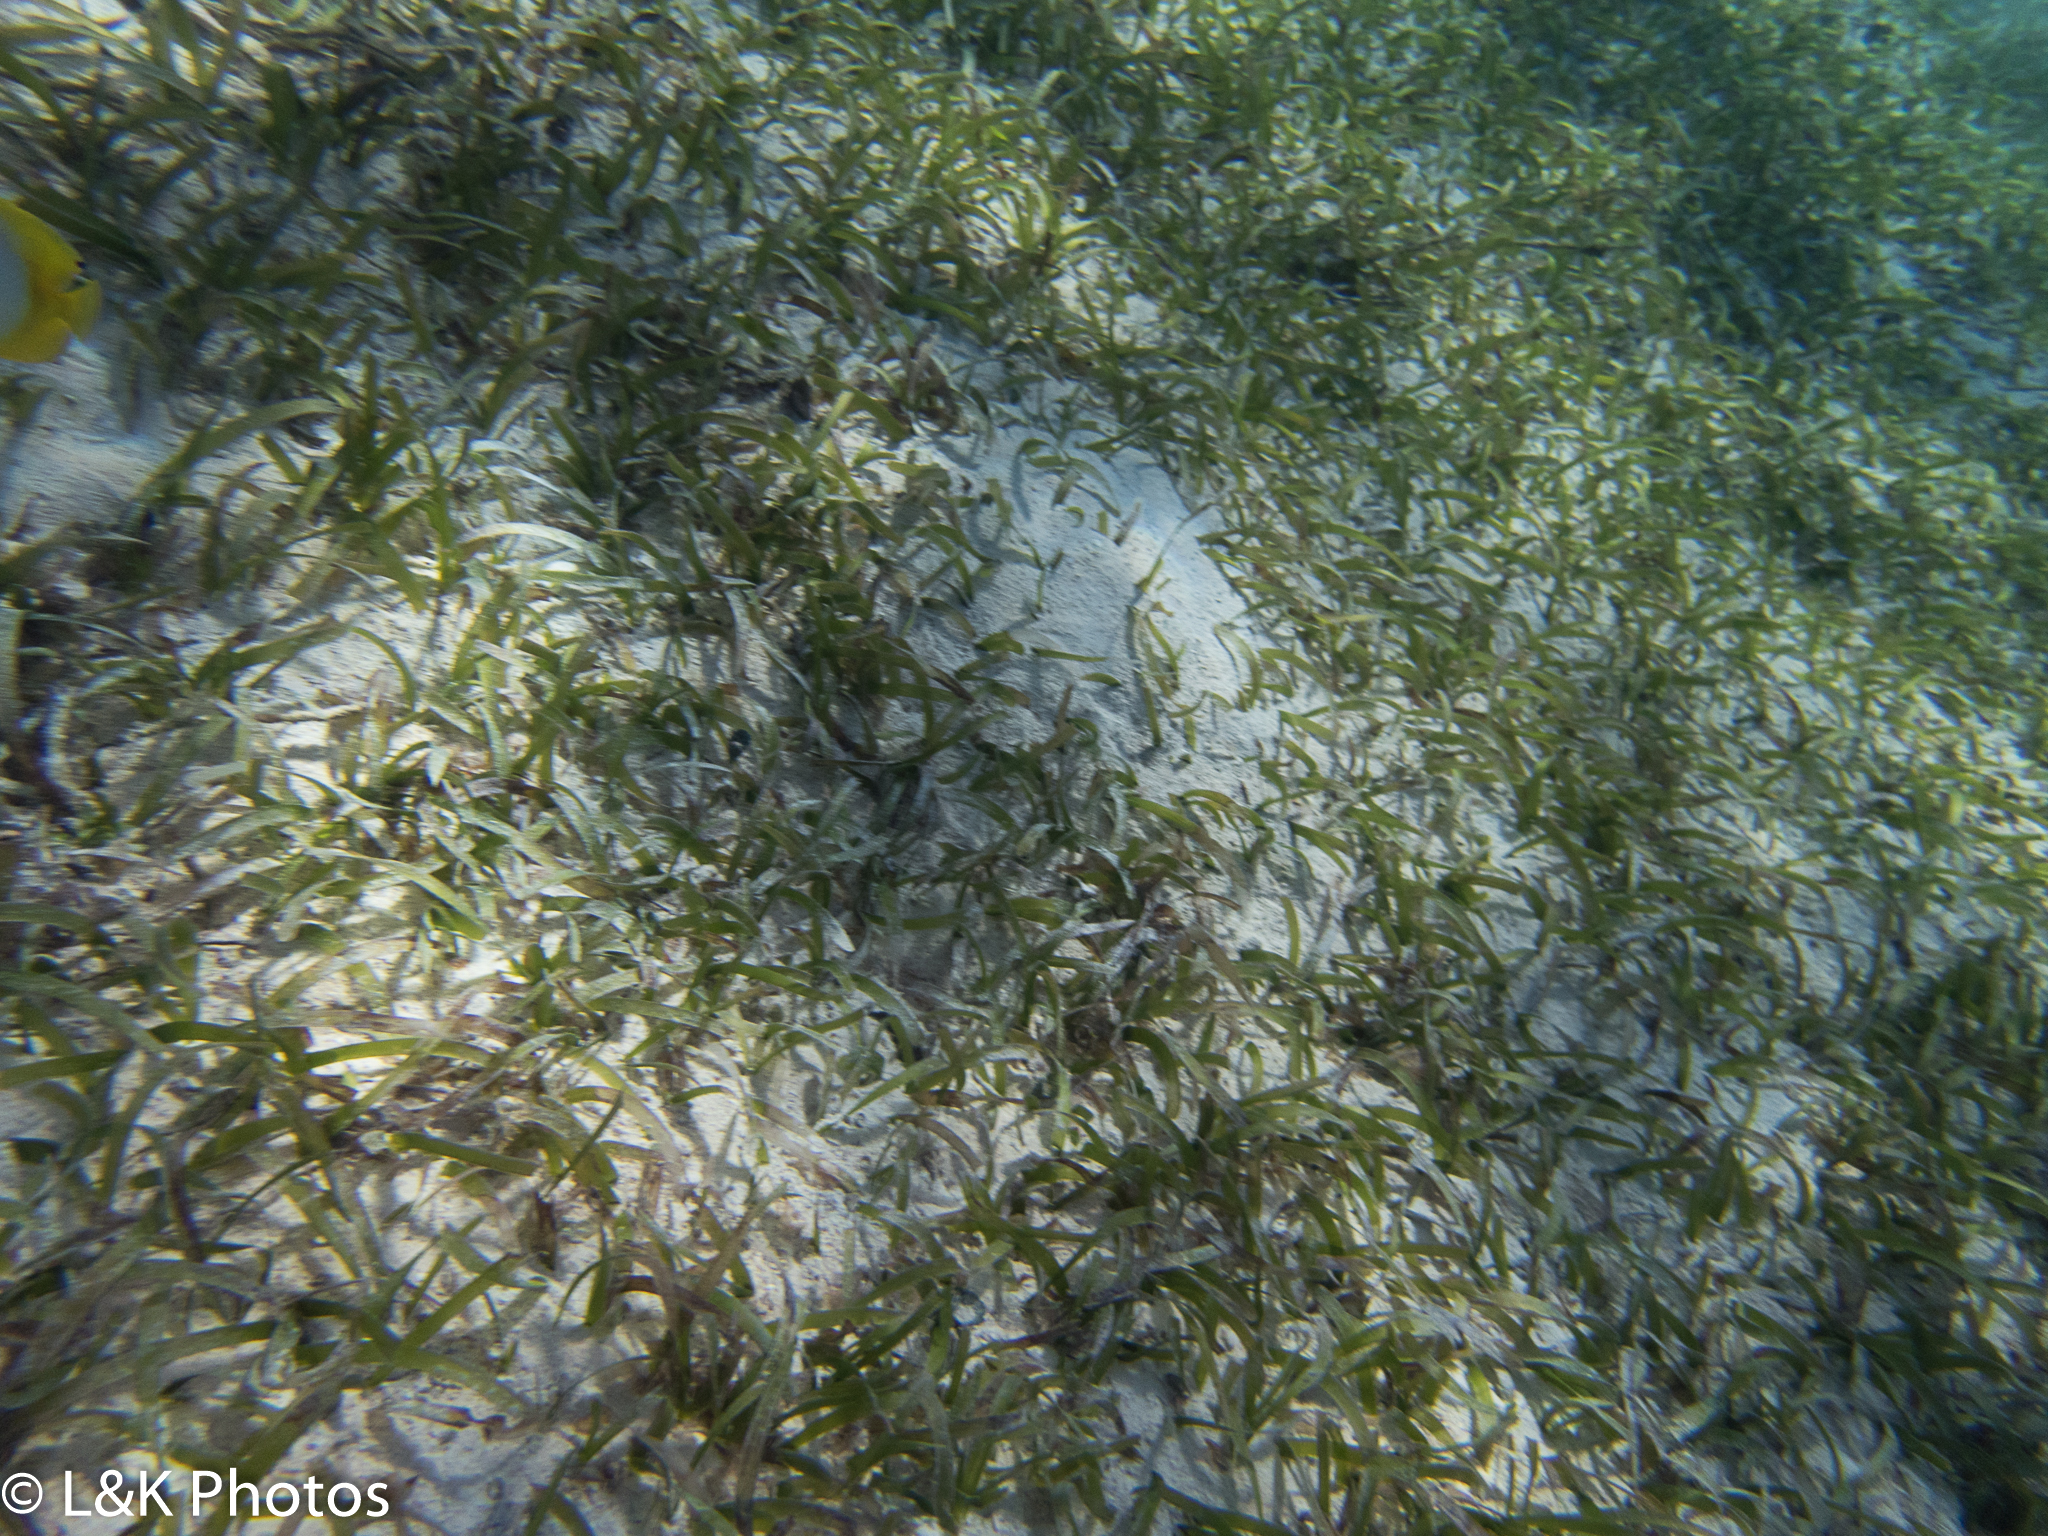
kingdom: Plantae
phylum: Tracheophyta
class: Liliopsida
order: Alismatales
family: Hydrocharitaceae
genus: Thalassia
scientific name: Thalassia testudinum
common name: Species code: tt
